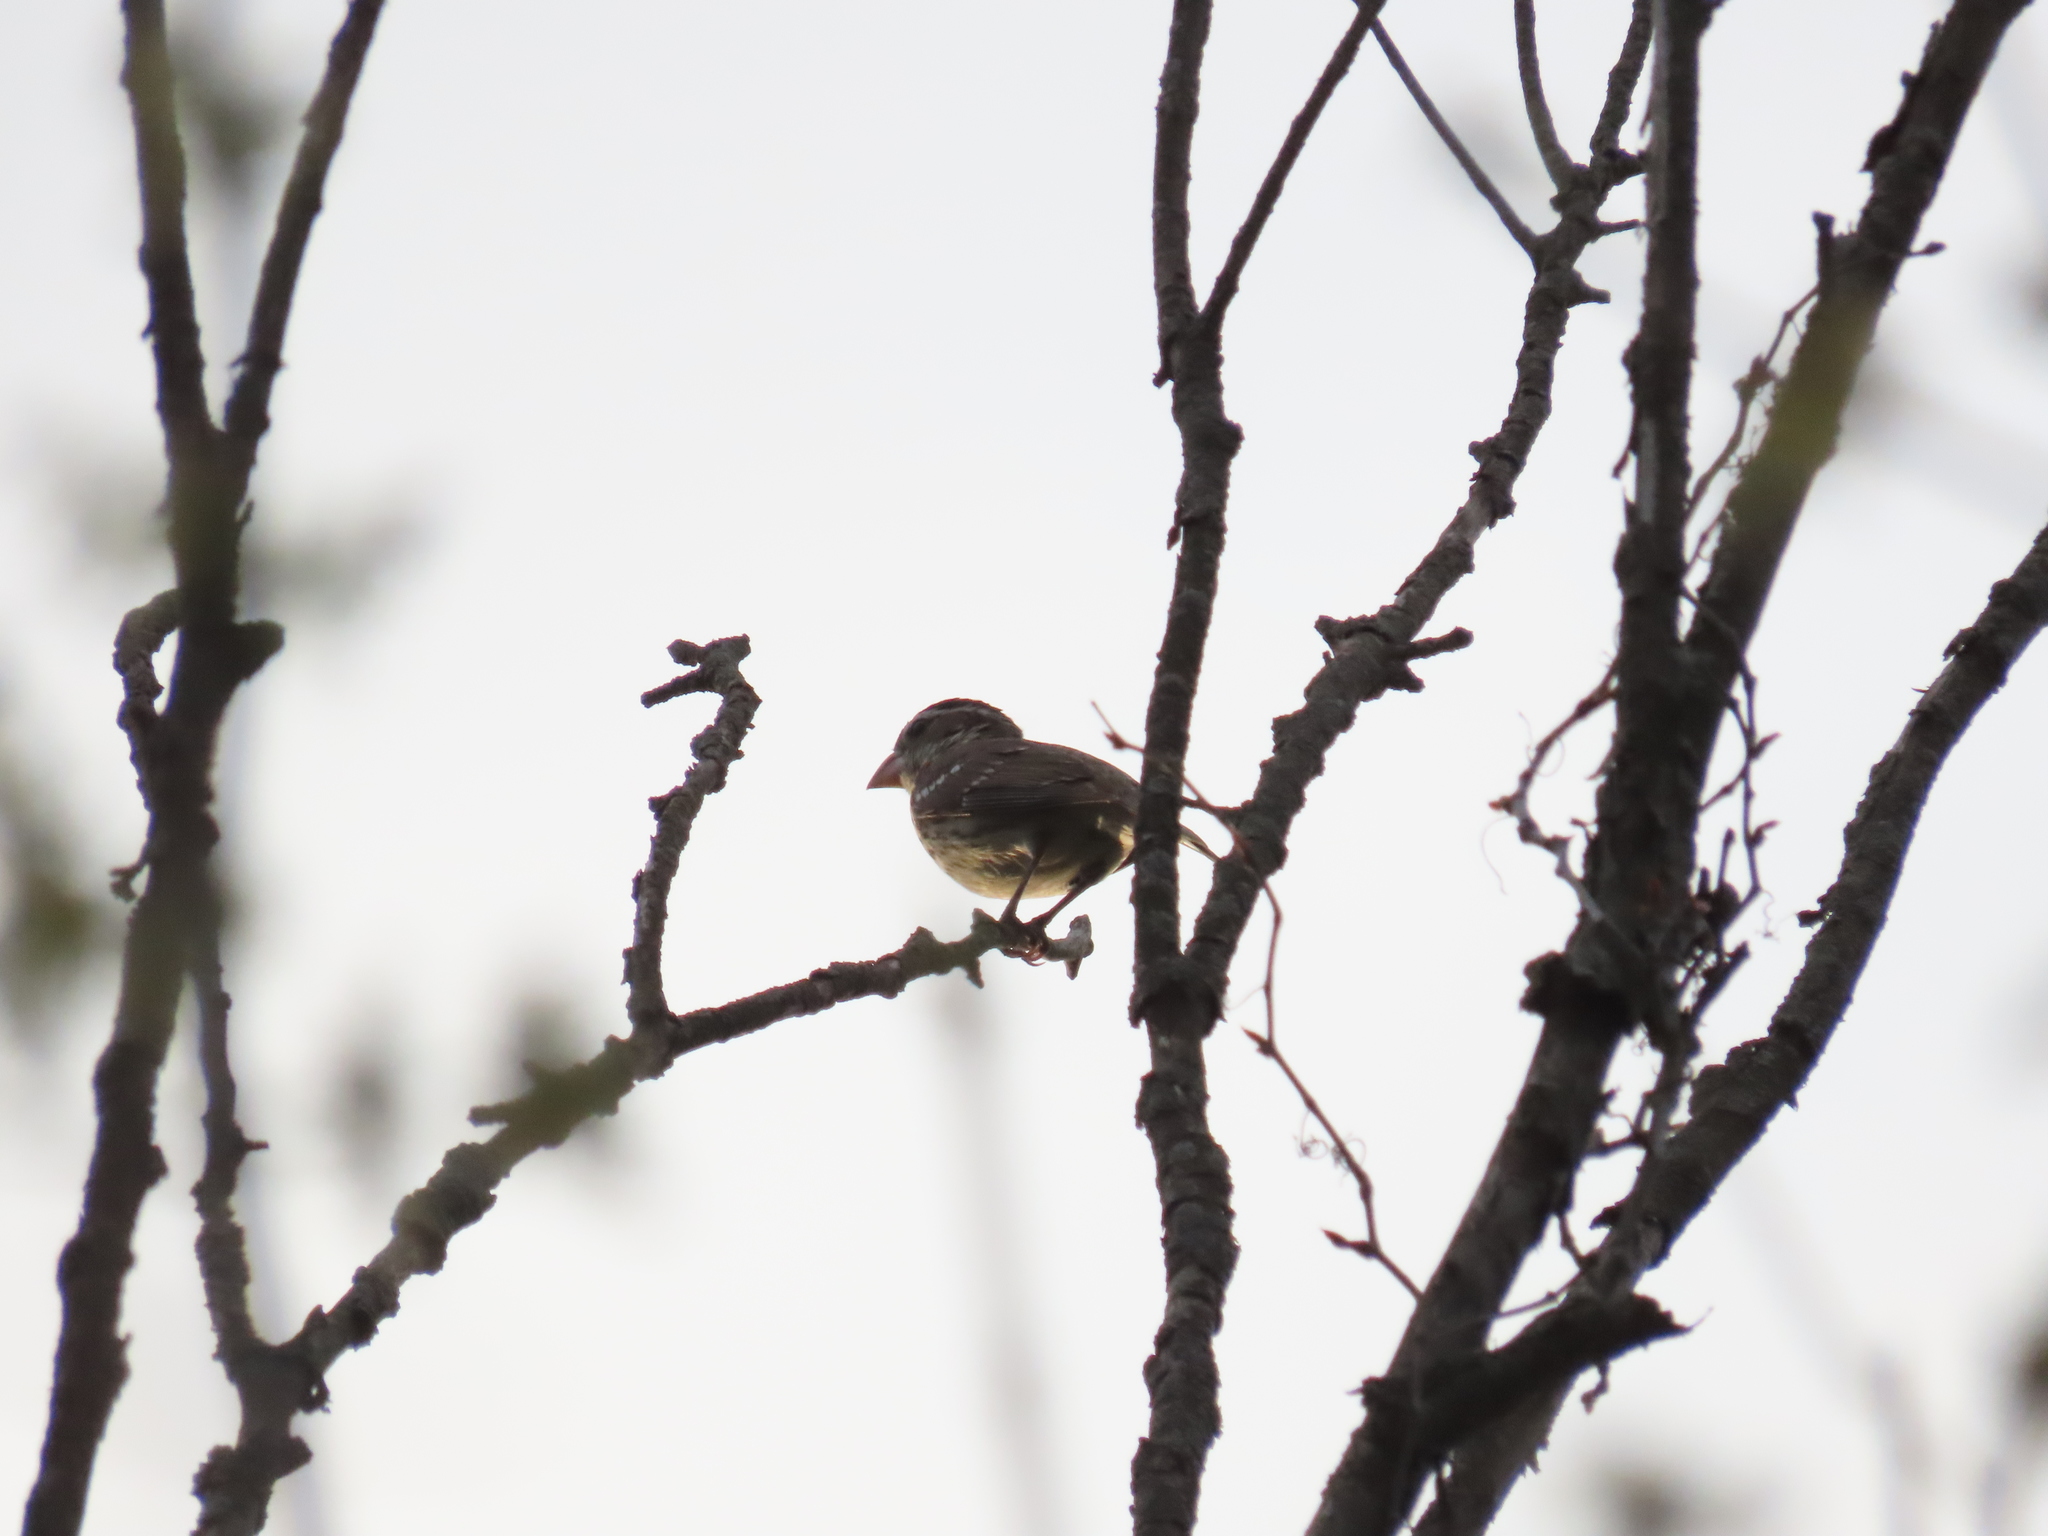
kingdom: Animalia
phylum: Chordata
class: Aves
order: Passeriformes
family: Cardinalidae
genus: Pheucticus
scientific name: Pheucticus ludovicianus
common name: Rose-breasted grosbeak
